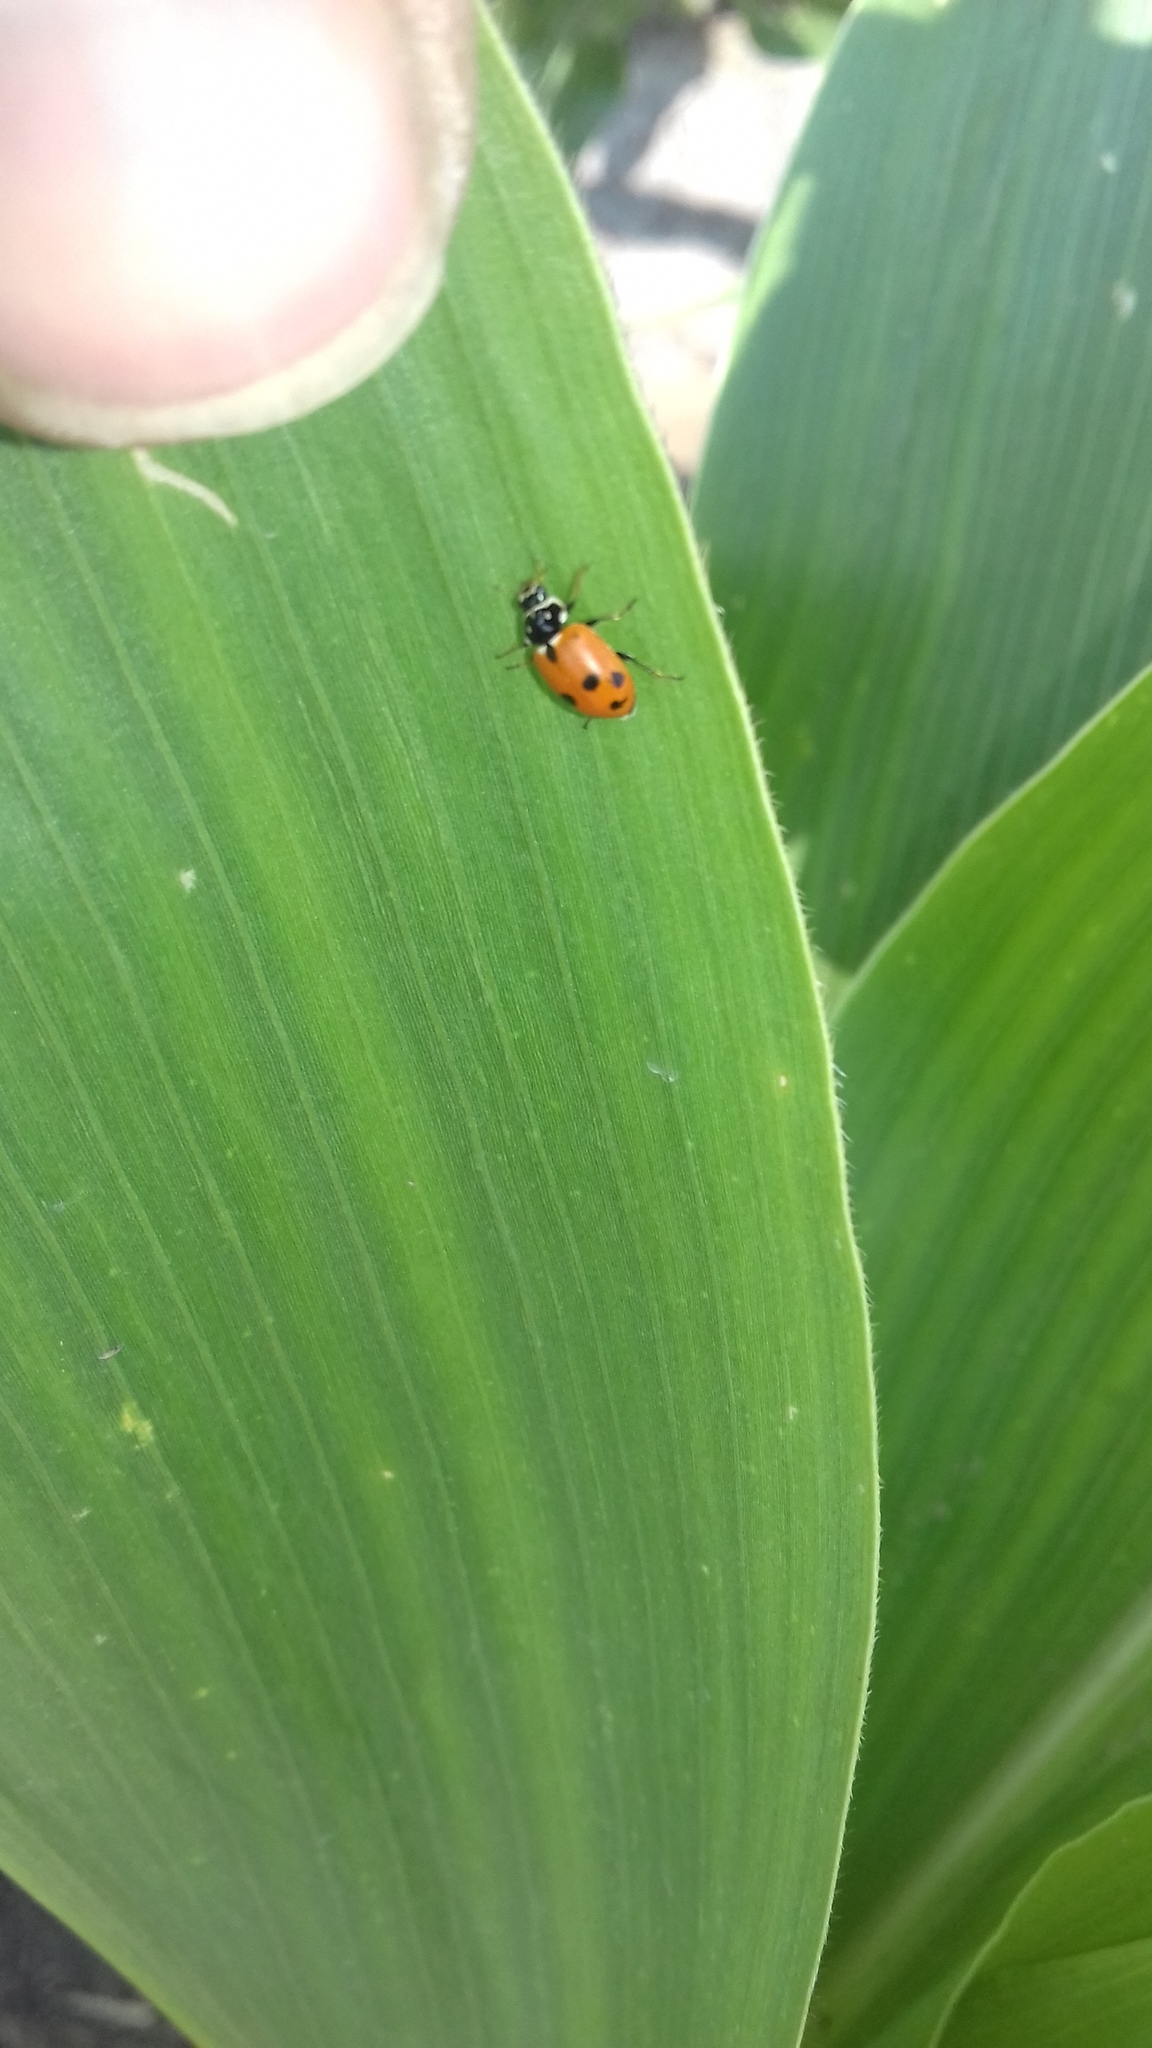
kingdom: Animalia
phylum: Arthropoda
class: Insecta
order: Coleoptera
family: Coccinellidae
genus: Hippodamia
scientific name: Hippodamia variegata
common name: Ladybird beetle
